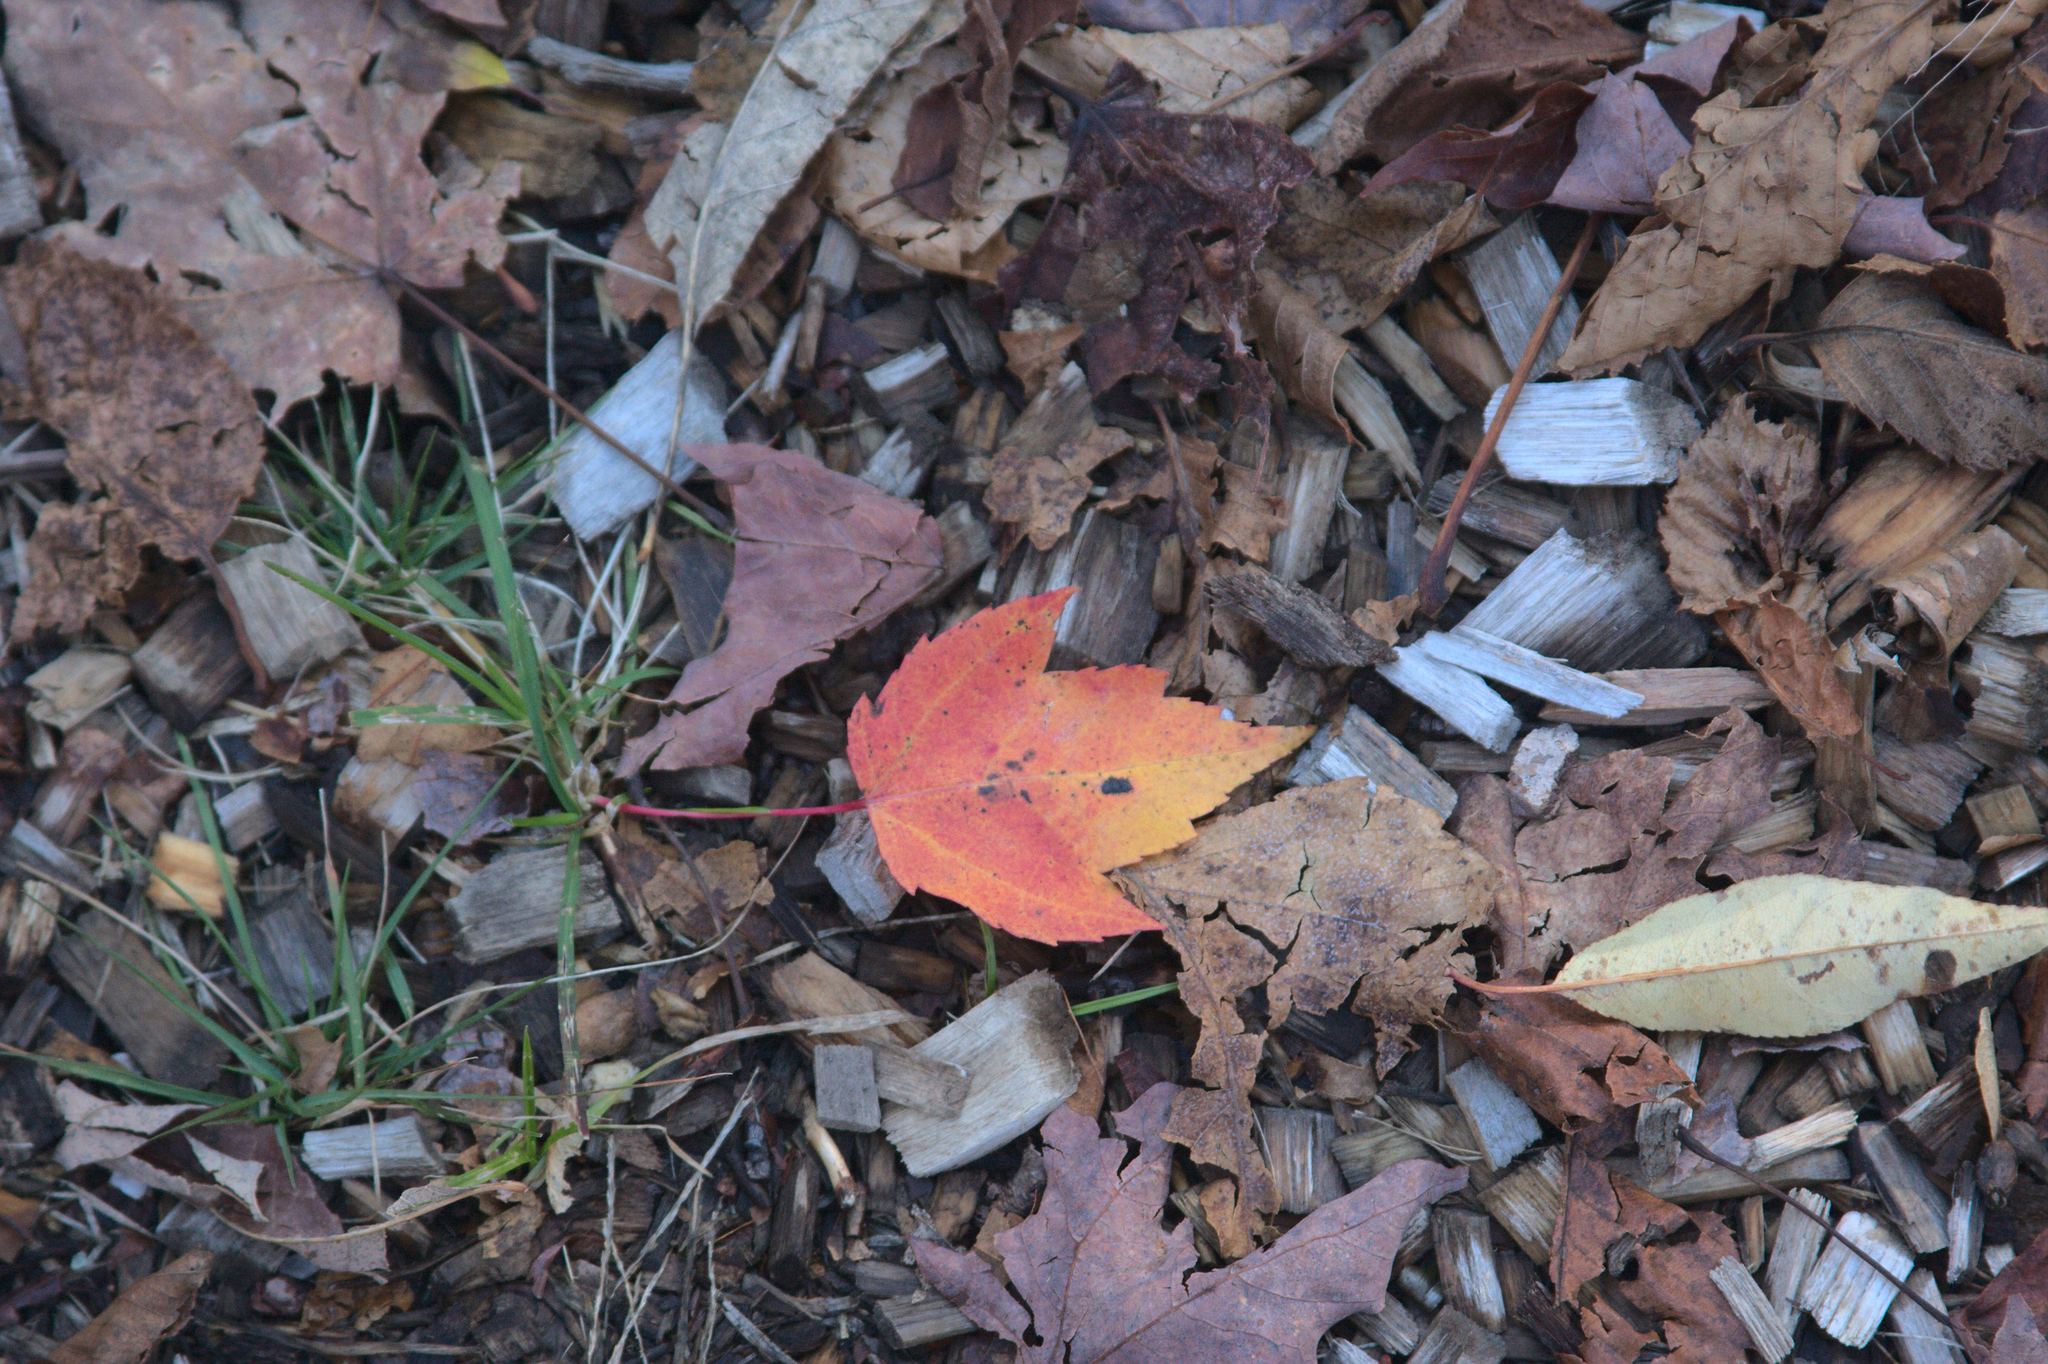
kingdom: Plantae
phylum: Tracheophyta
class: Magnoliopsida
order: Sapindales
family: Sapindaceae
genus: Acer
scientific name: Acer rubrum
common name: Red maple
